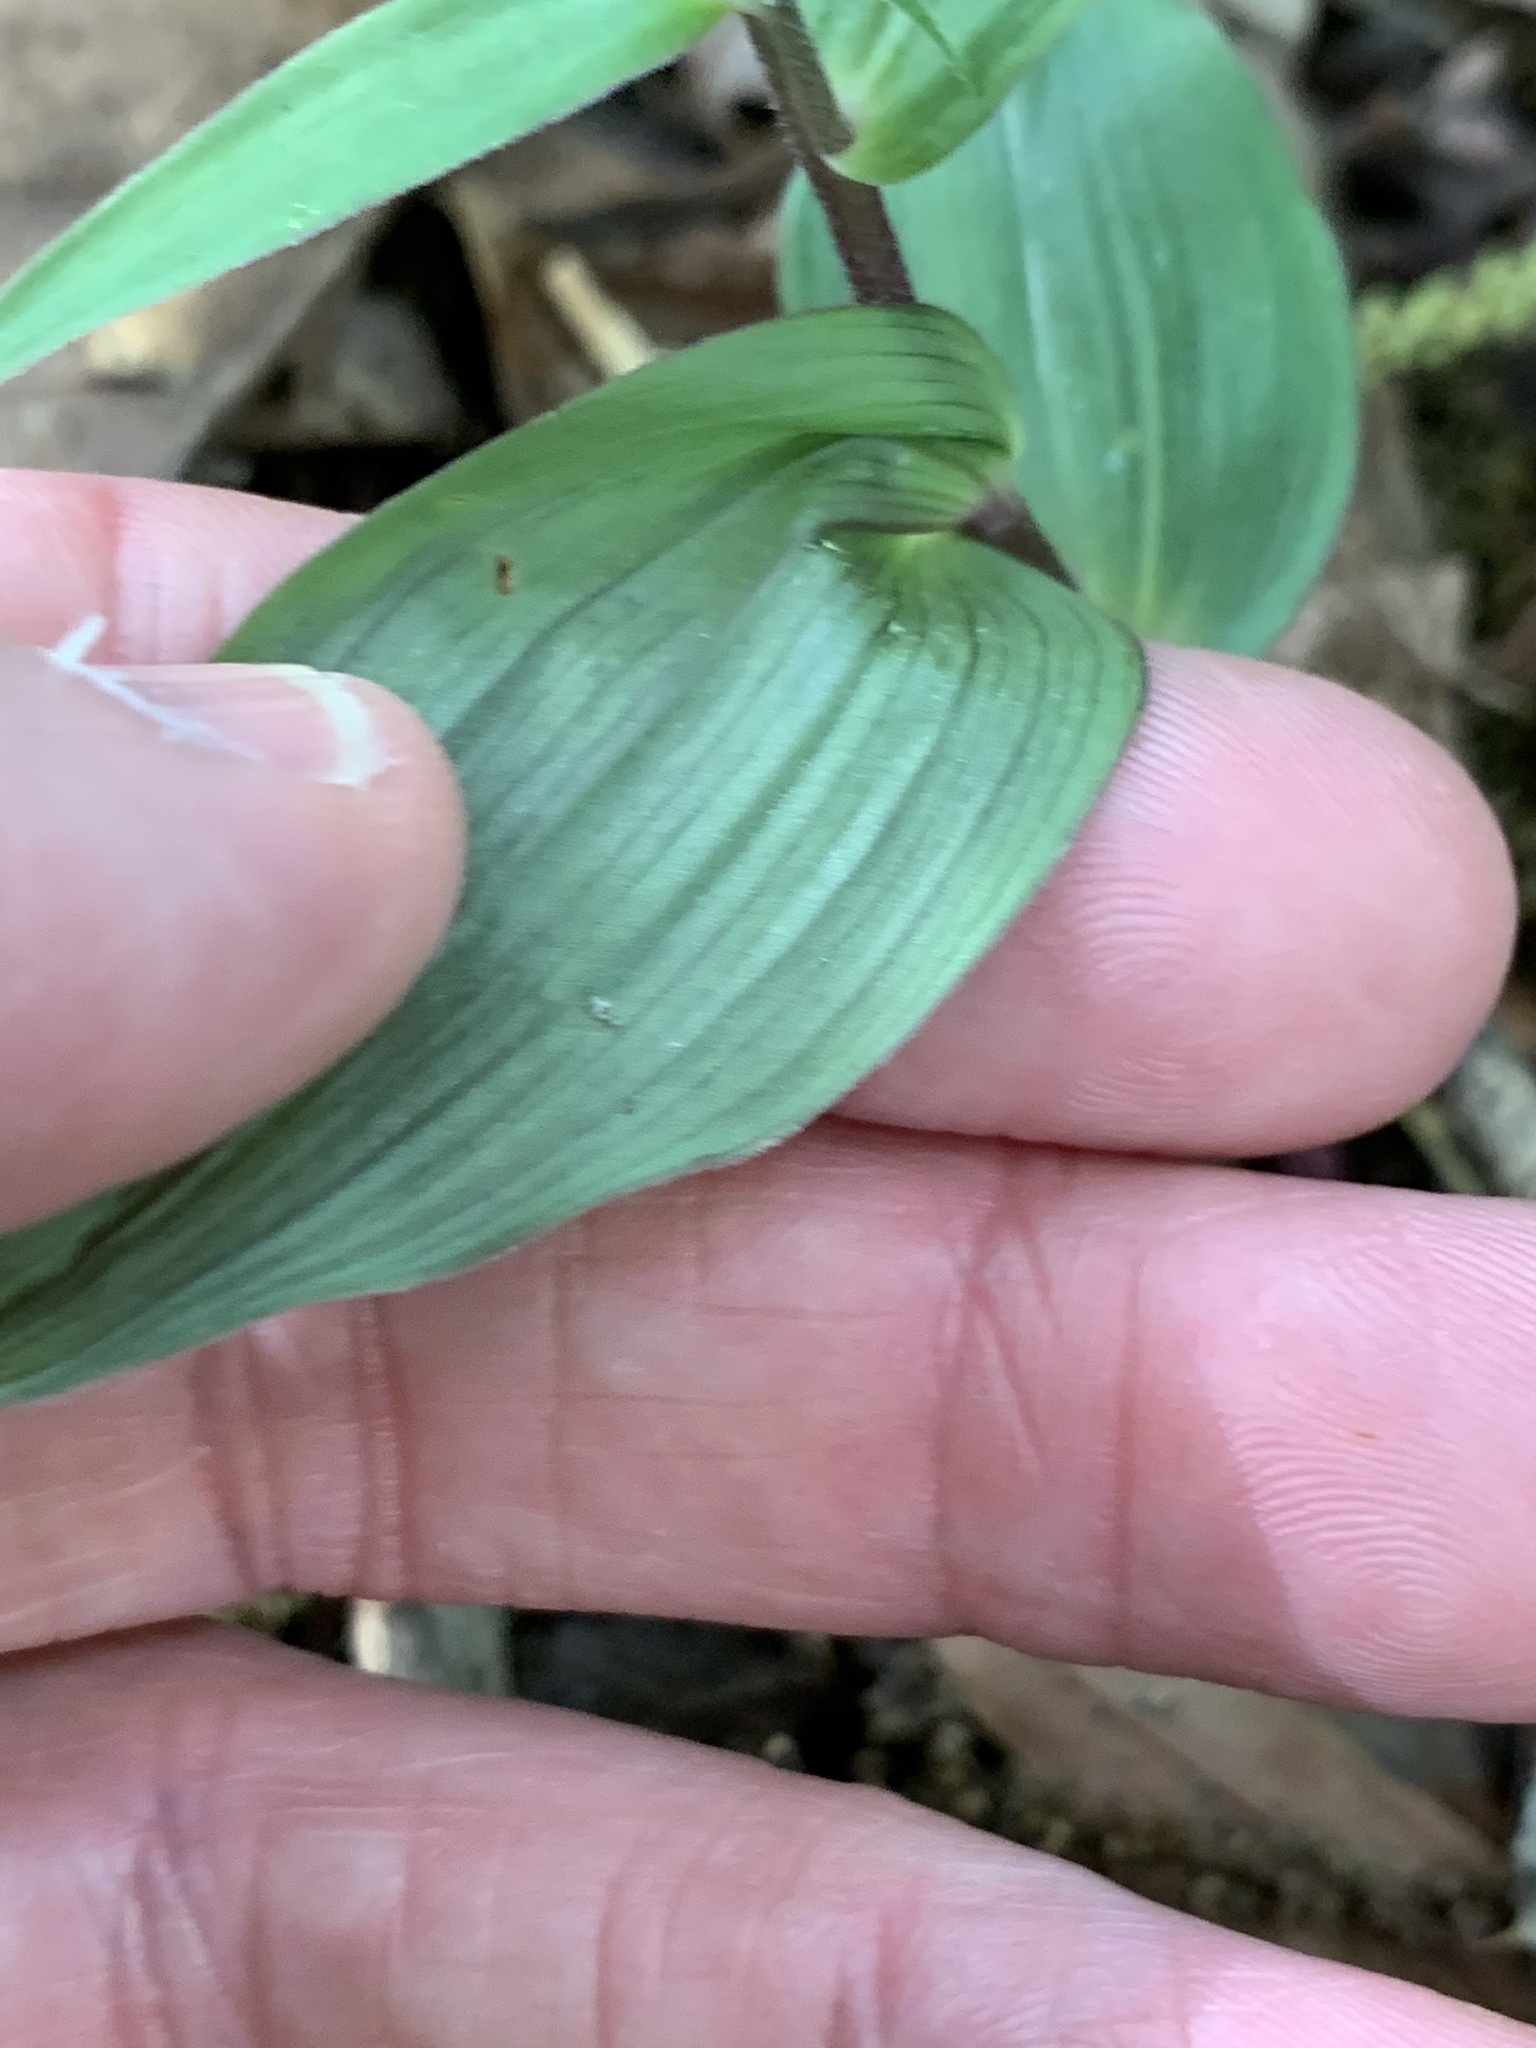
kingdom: Plantae
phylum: Tracheophyta
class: Liliopsida
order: Asparagales
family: Orchidaceae
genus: Epipactis
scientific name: Epipactis helleborine
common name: Broad-leaved helleborine
